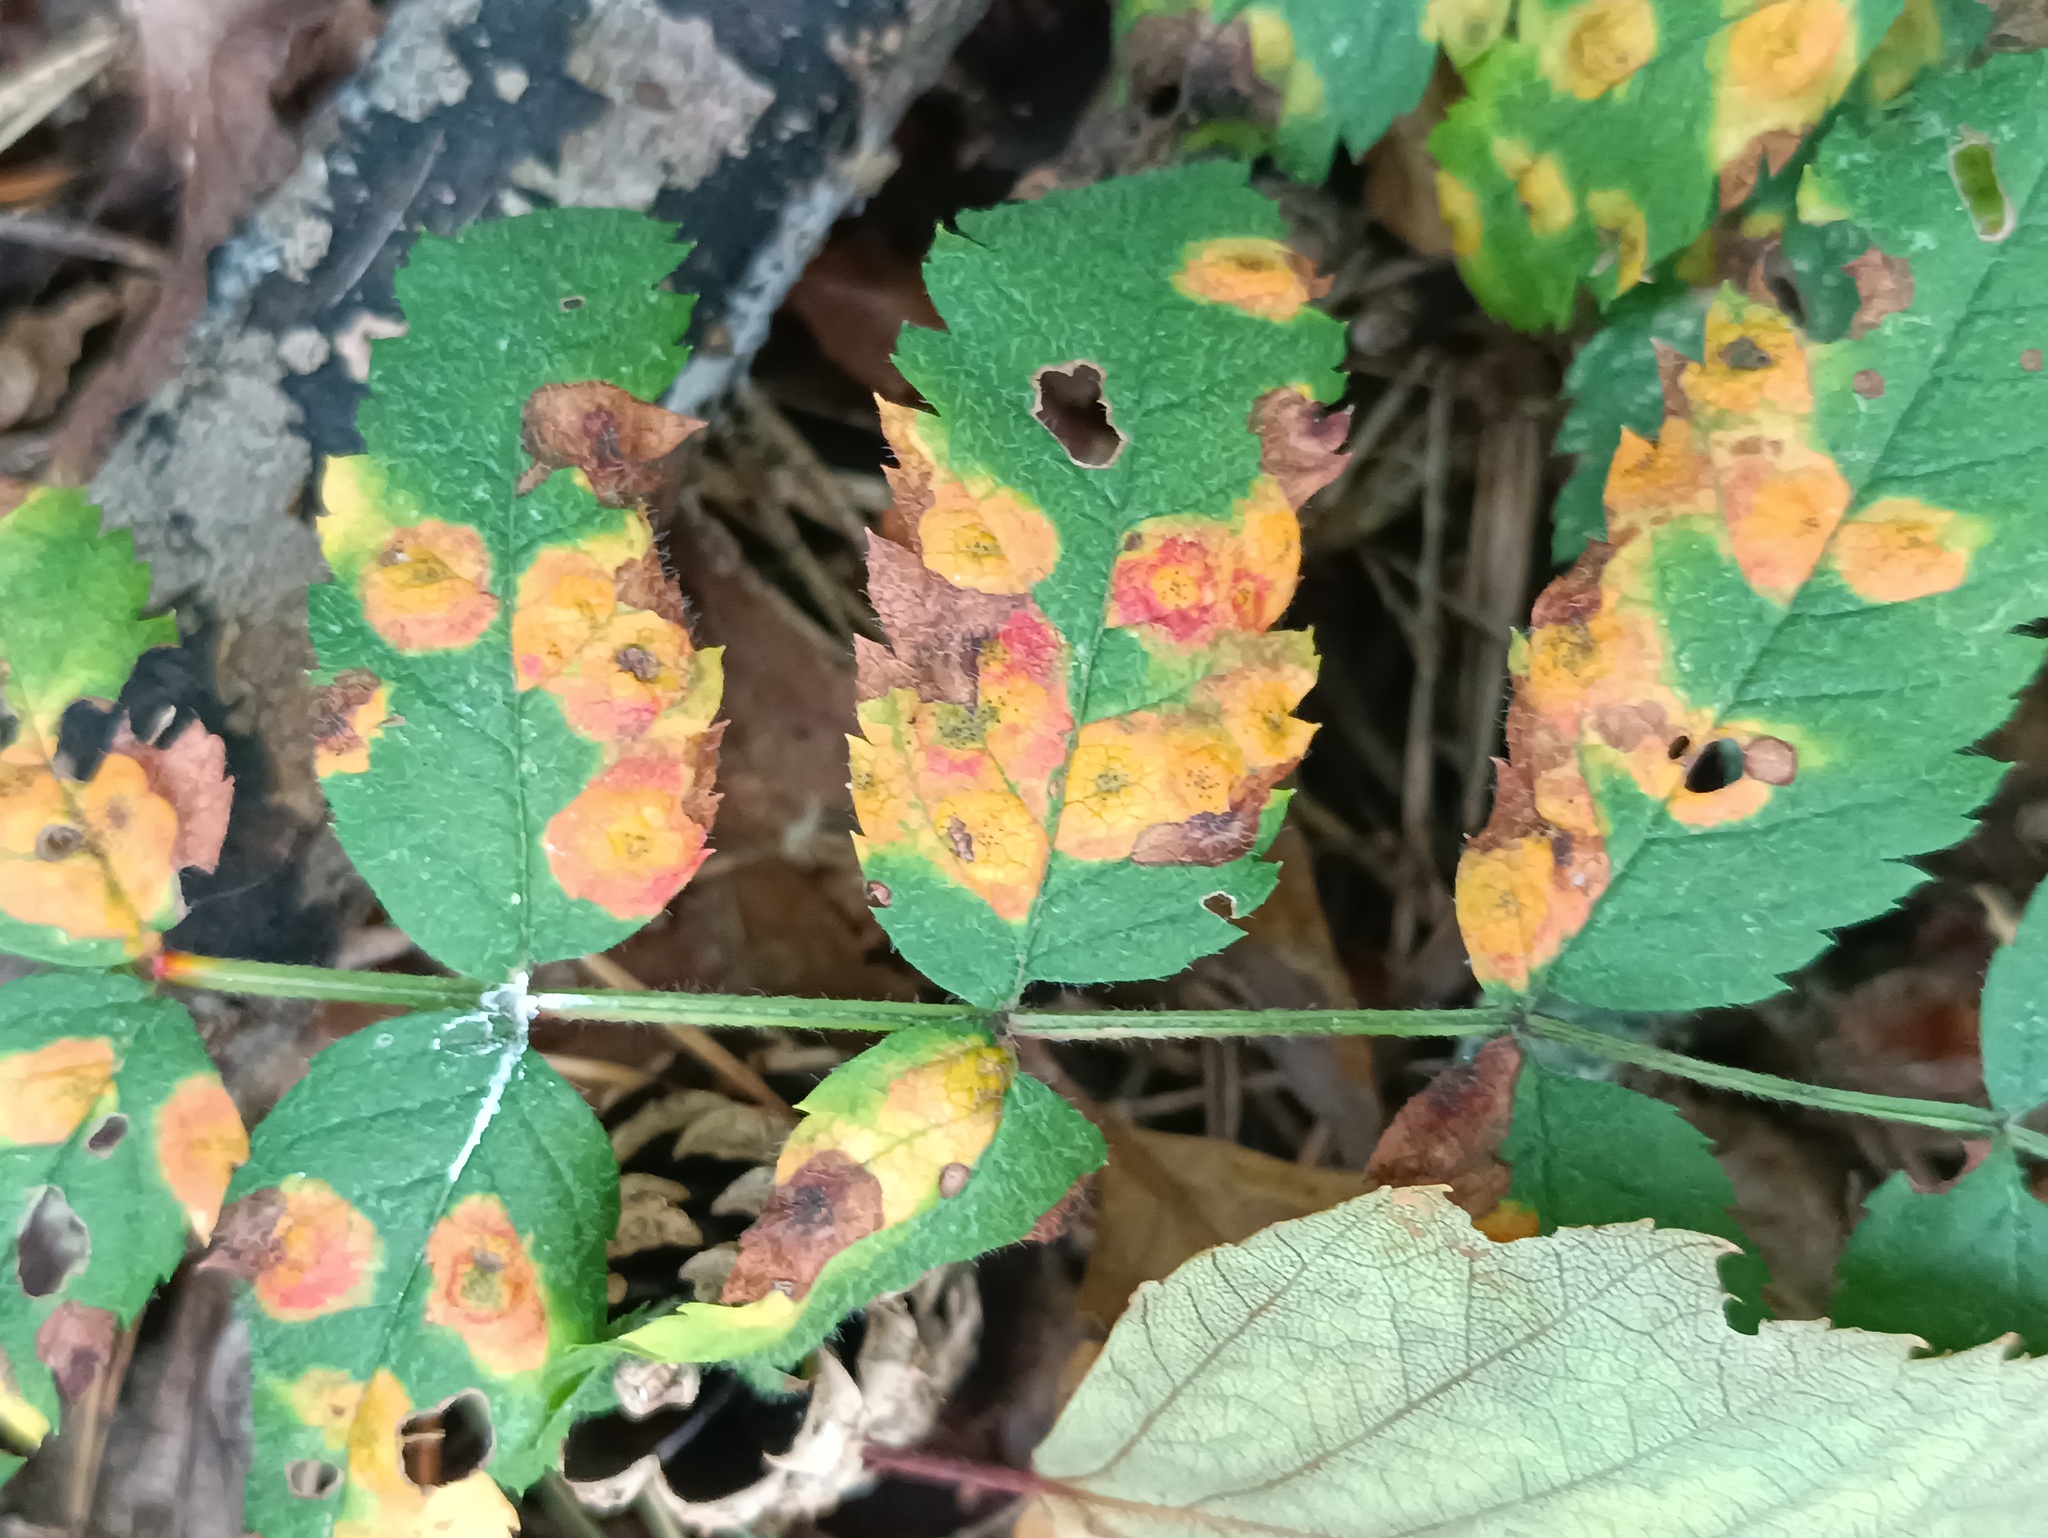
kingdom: Fungi
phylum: Basidiomycota
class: Pucciniomycetes
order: Pucciniales
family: Gymnosporangiaceae
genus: Gymnosporangium
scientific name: Gymnosporangium cornutum
